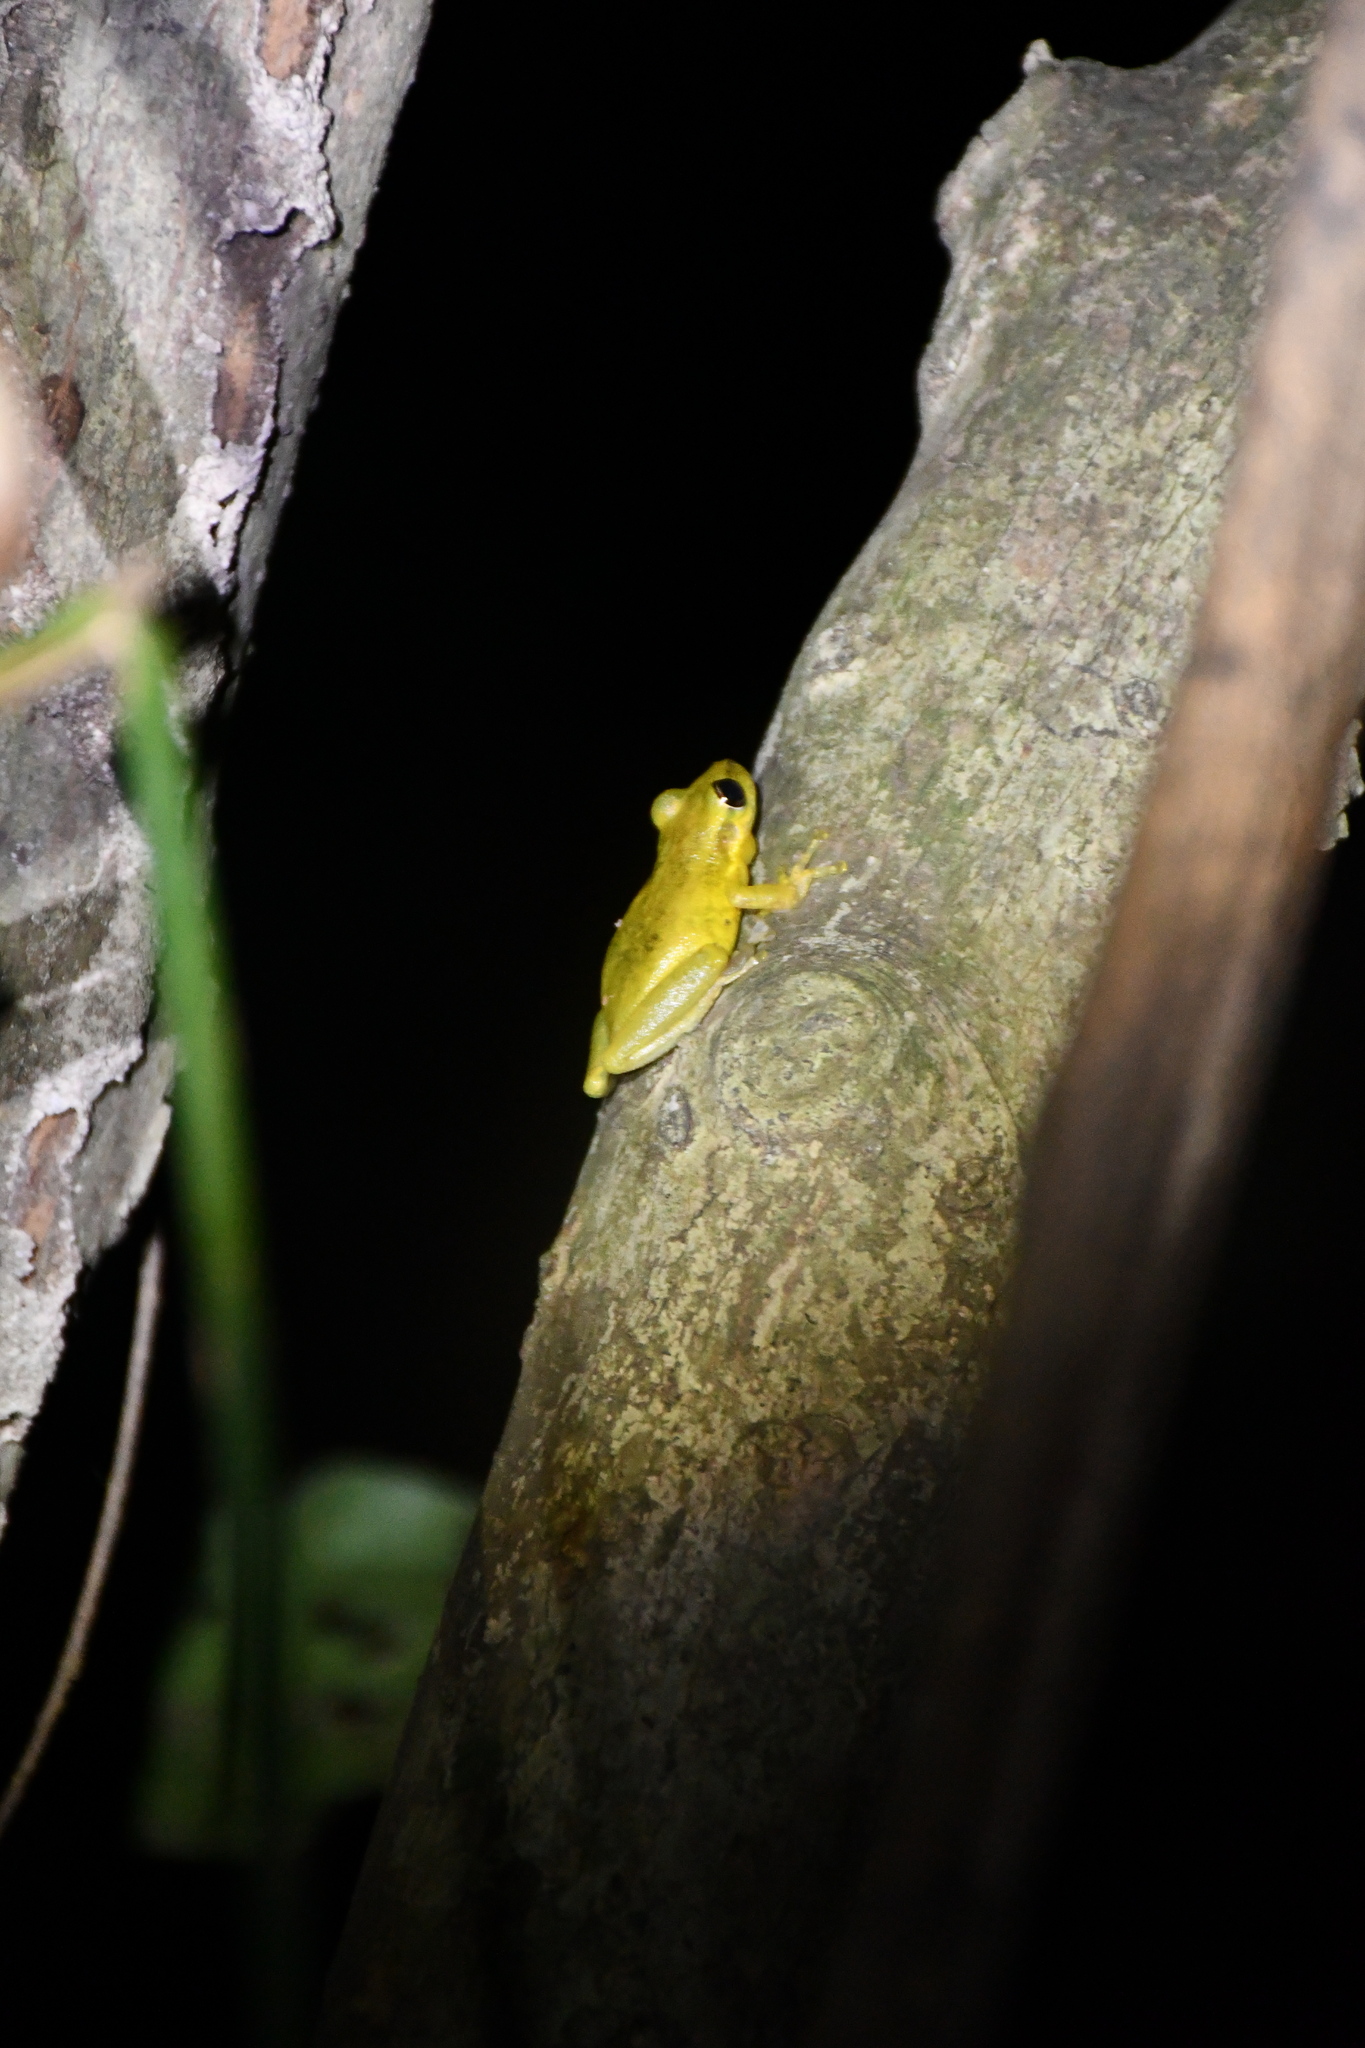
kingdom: Animalia
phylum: Chordata
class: Amphibia
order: Anura
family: Hylidae
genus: Scinax
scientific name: Scinax ruber
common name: Red snouted treefrog
